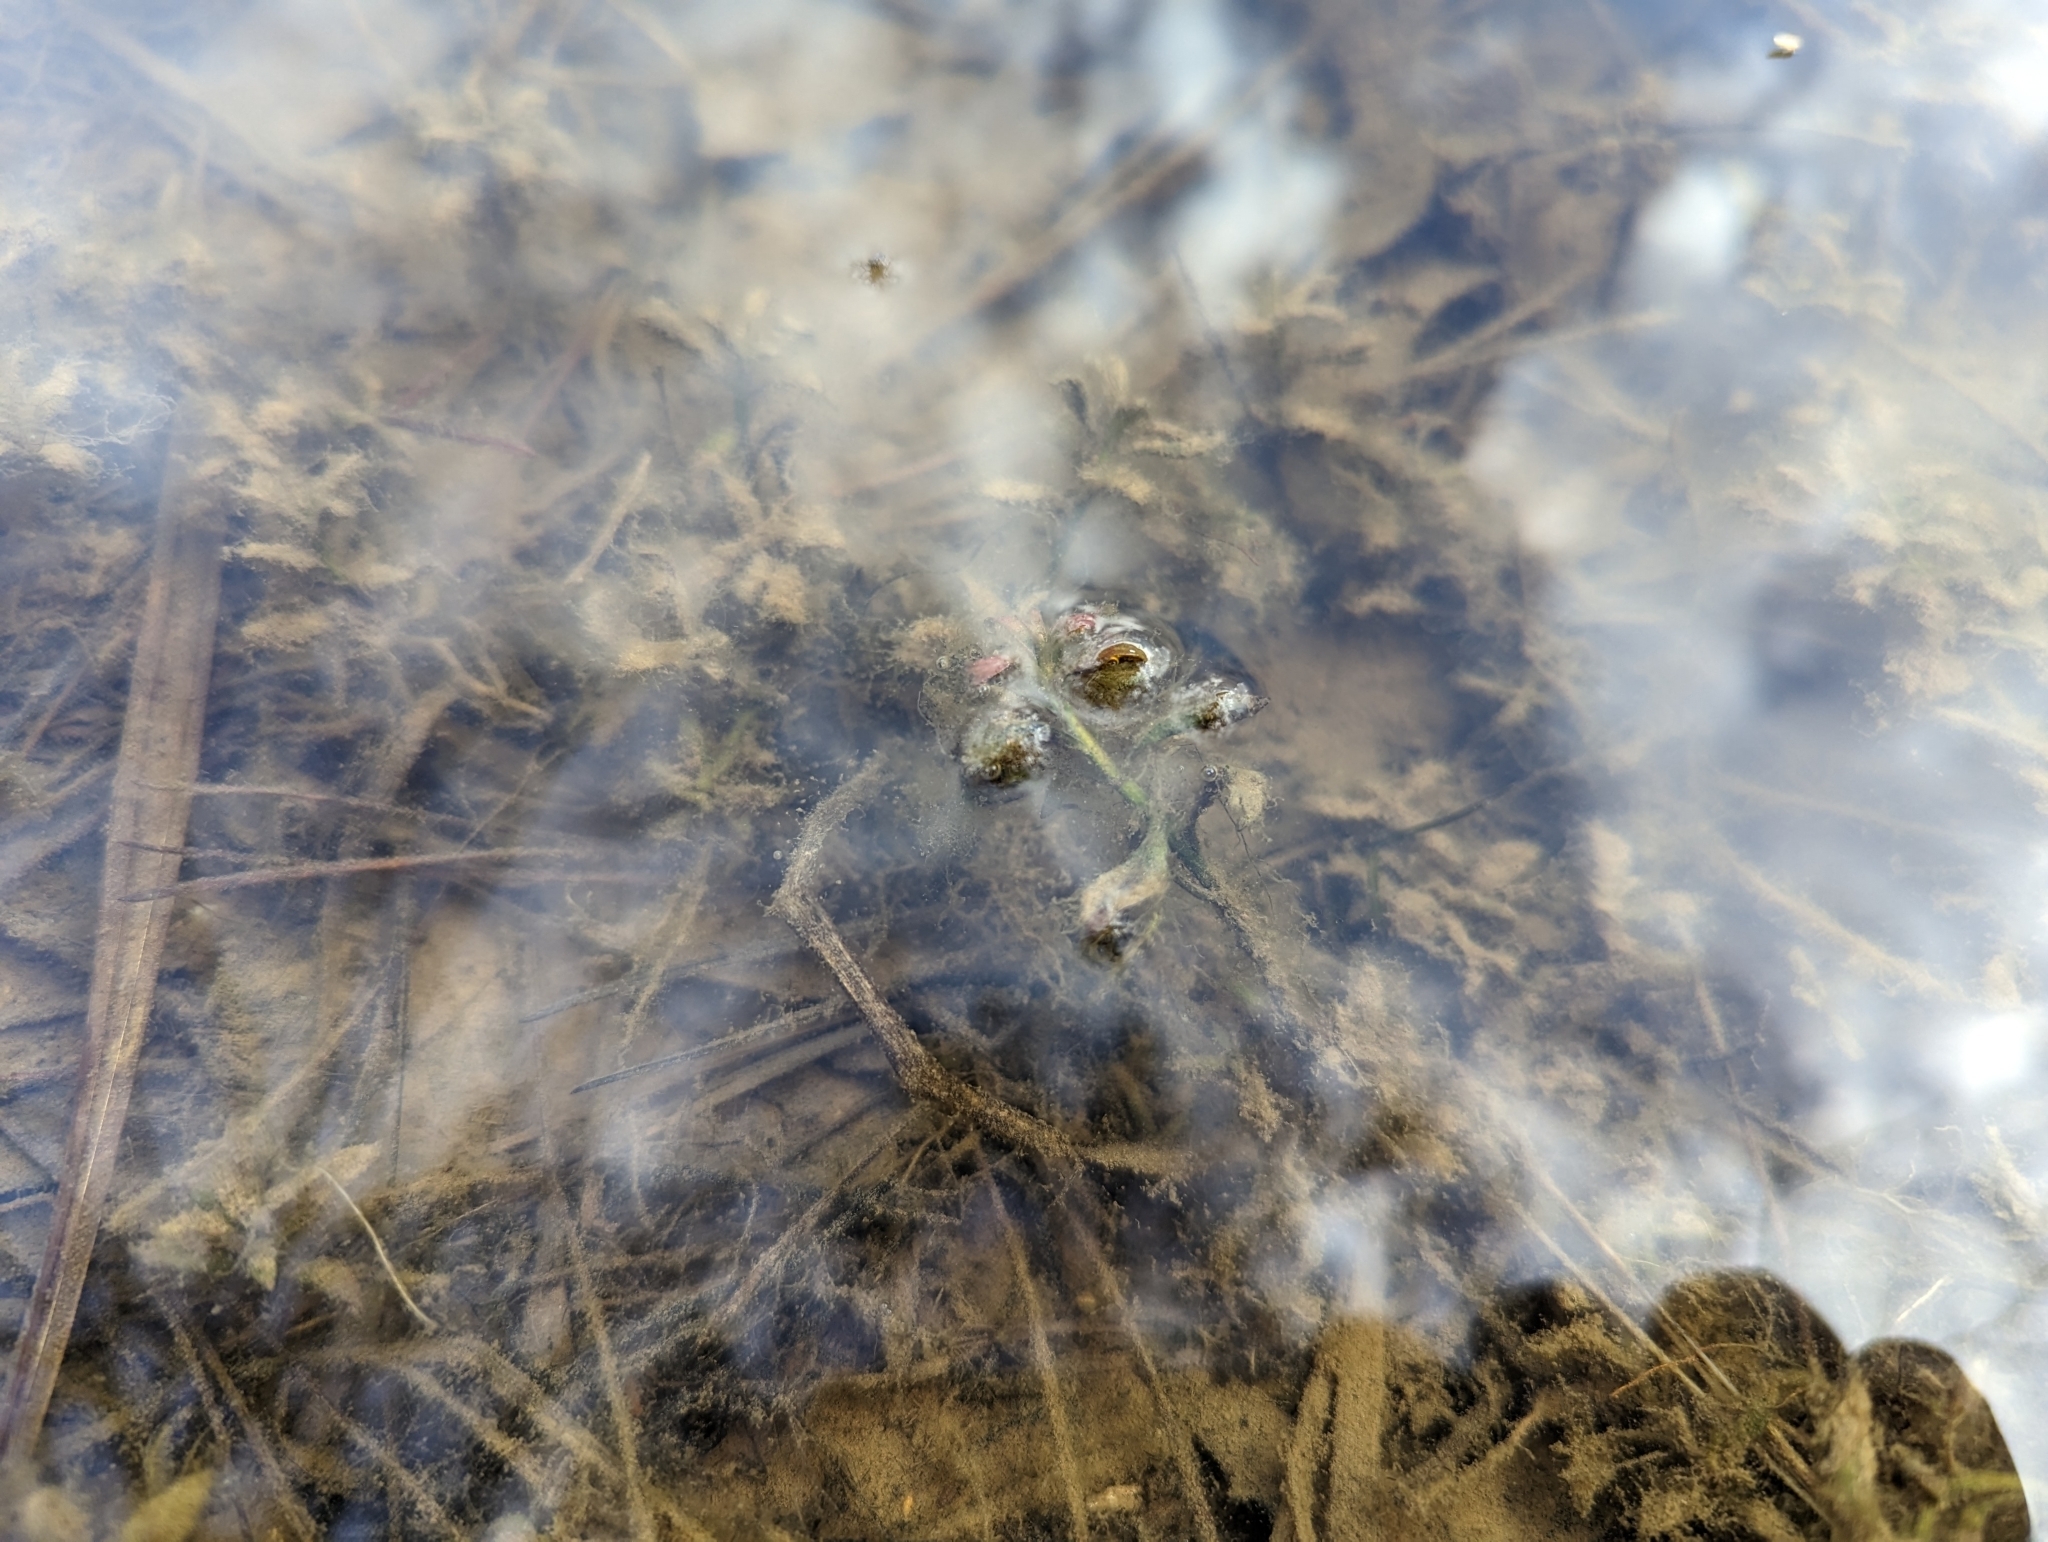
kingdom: Plantae
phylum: Tracheophyta
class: Magnoliopsida
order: Myrtales
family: Onagraceae
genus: Ludwigia
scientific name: Ludwigia palustris
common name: Hampshire-purslane
